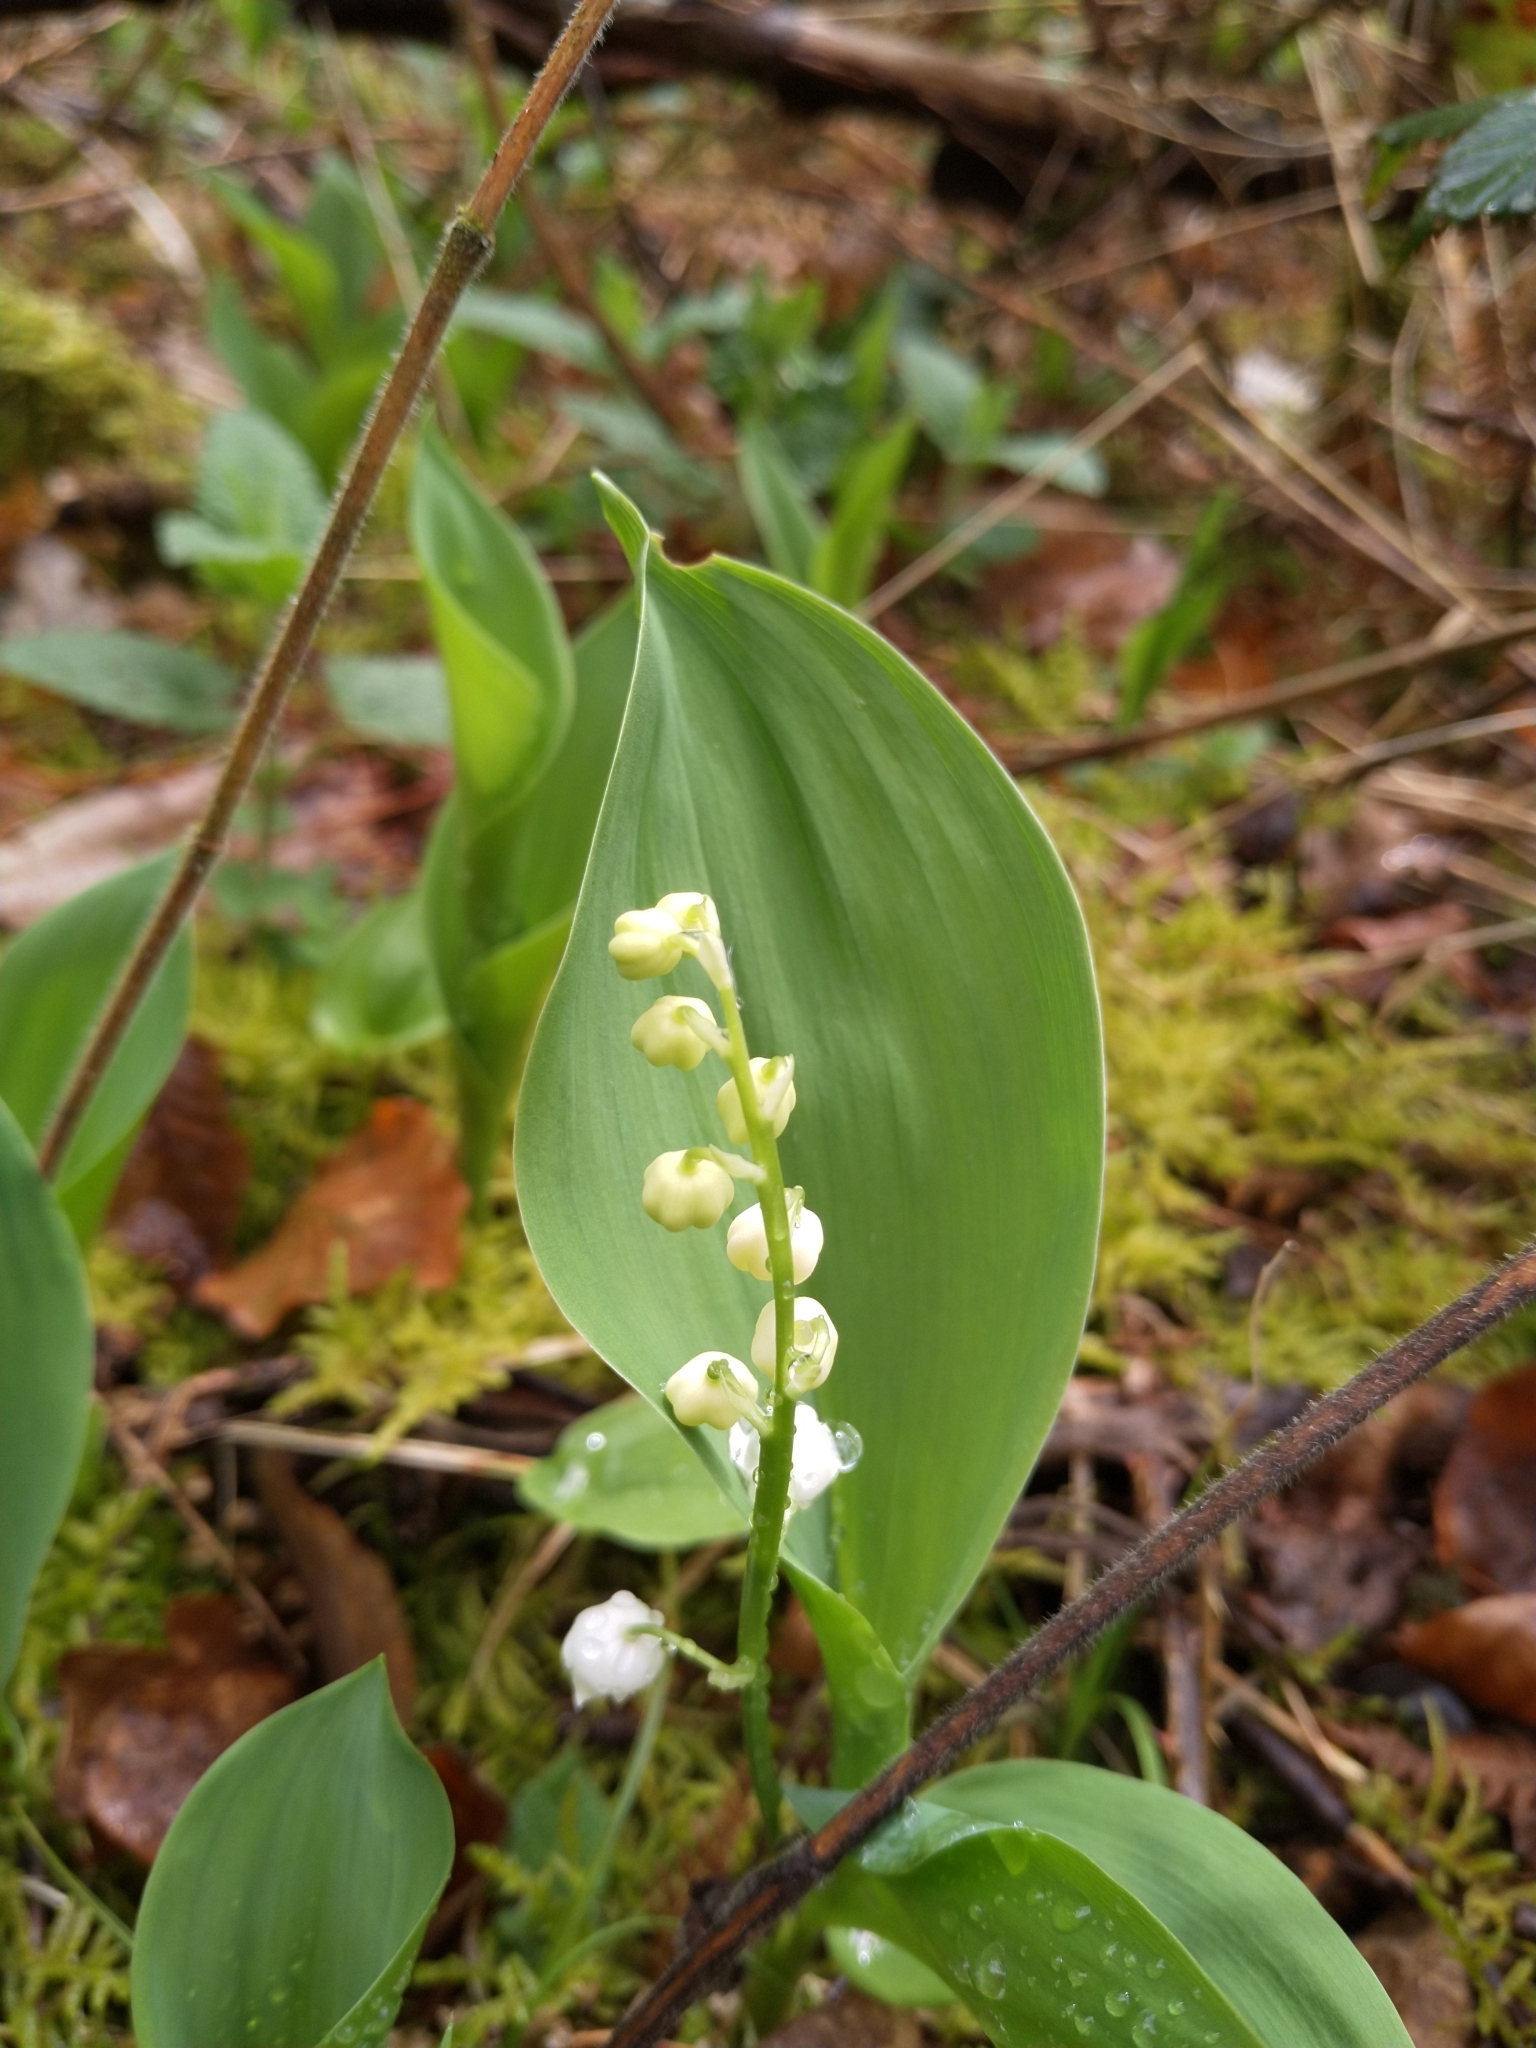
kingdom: Plantae
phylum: Tracheophyta
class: Liliopsida
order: Asparagales
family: Asparagaceae
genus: Convallaria
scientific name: Convallaria majalis
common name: Lily-of-the-valley
